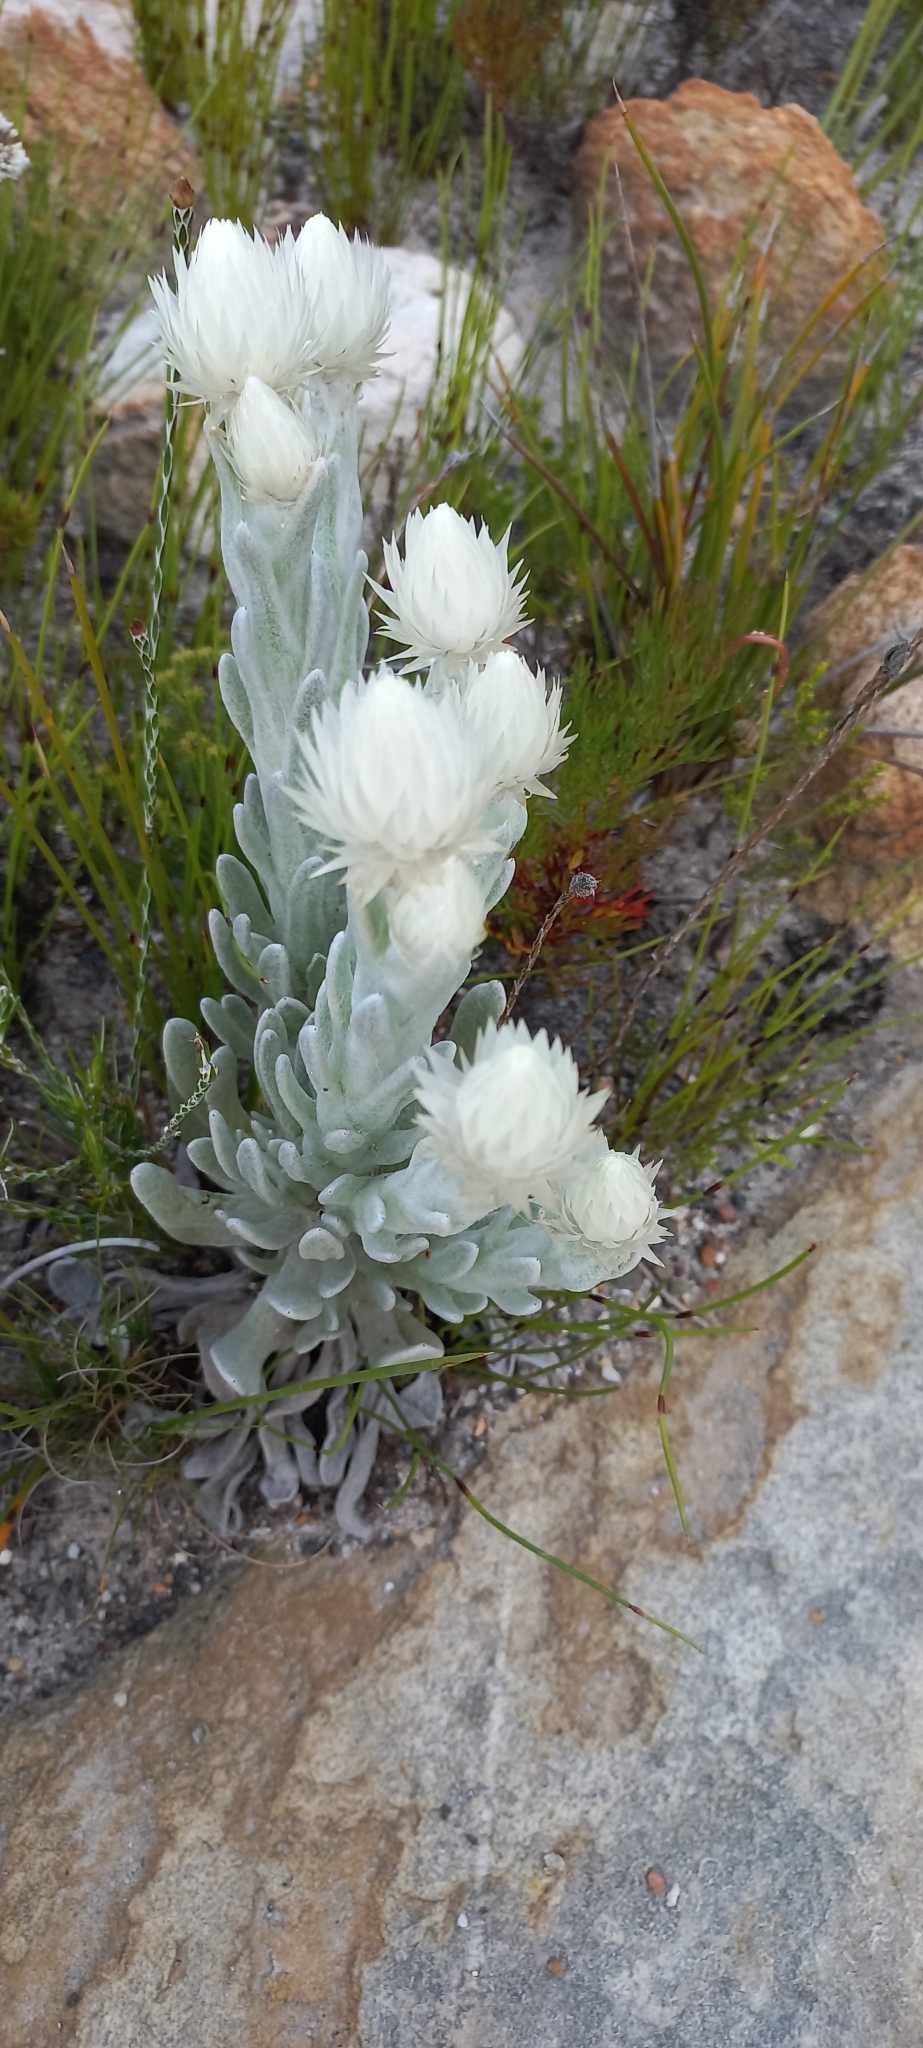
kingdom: Plantae
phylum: Tracheophyta
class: Magnoliopsida
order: Asterales
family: Asteraceae
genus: Syncarpha
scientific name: Syncarpha vestita
